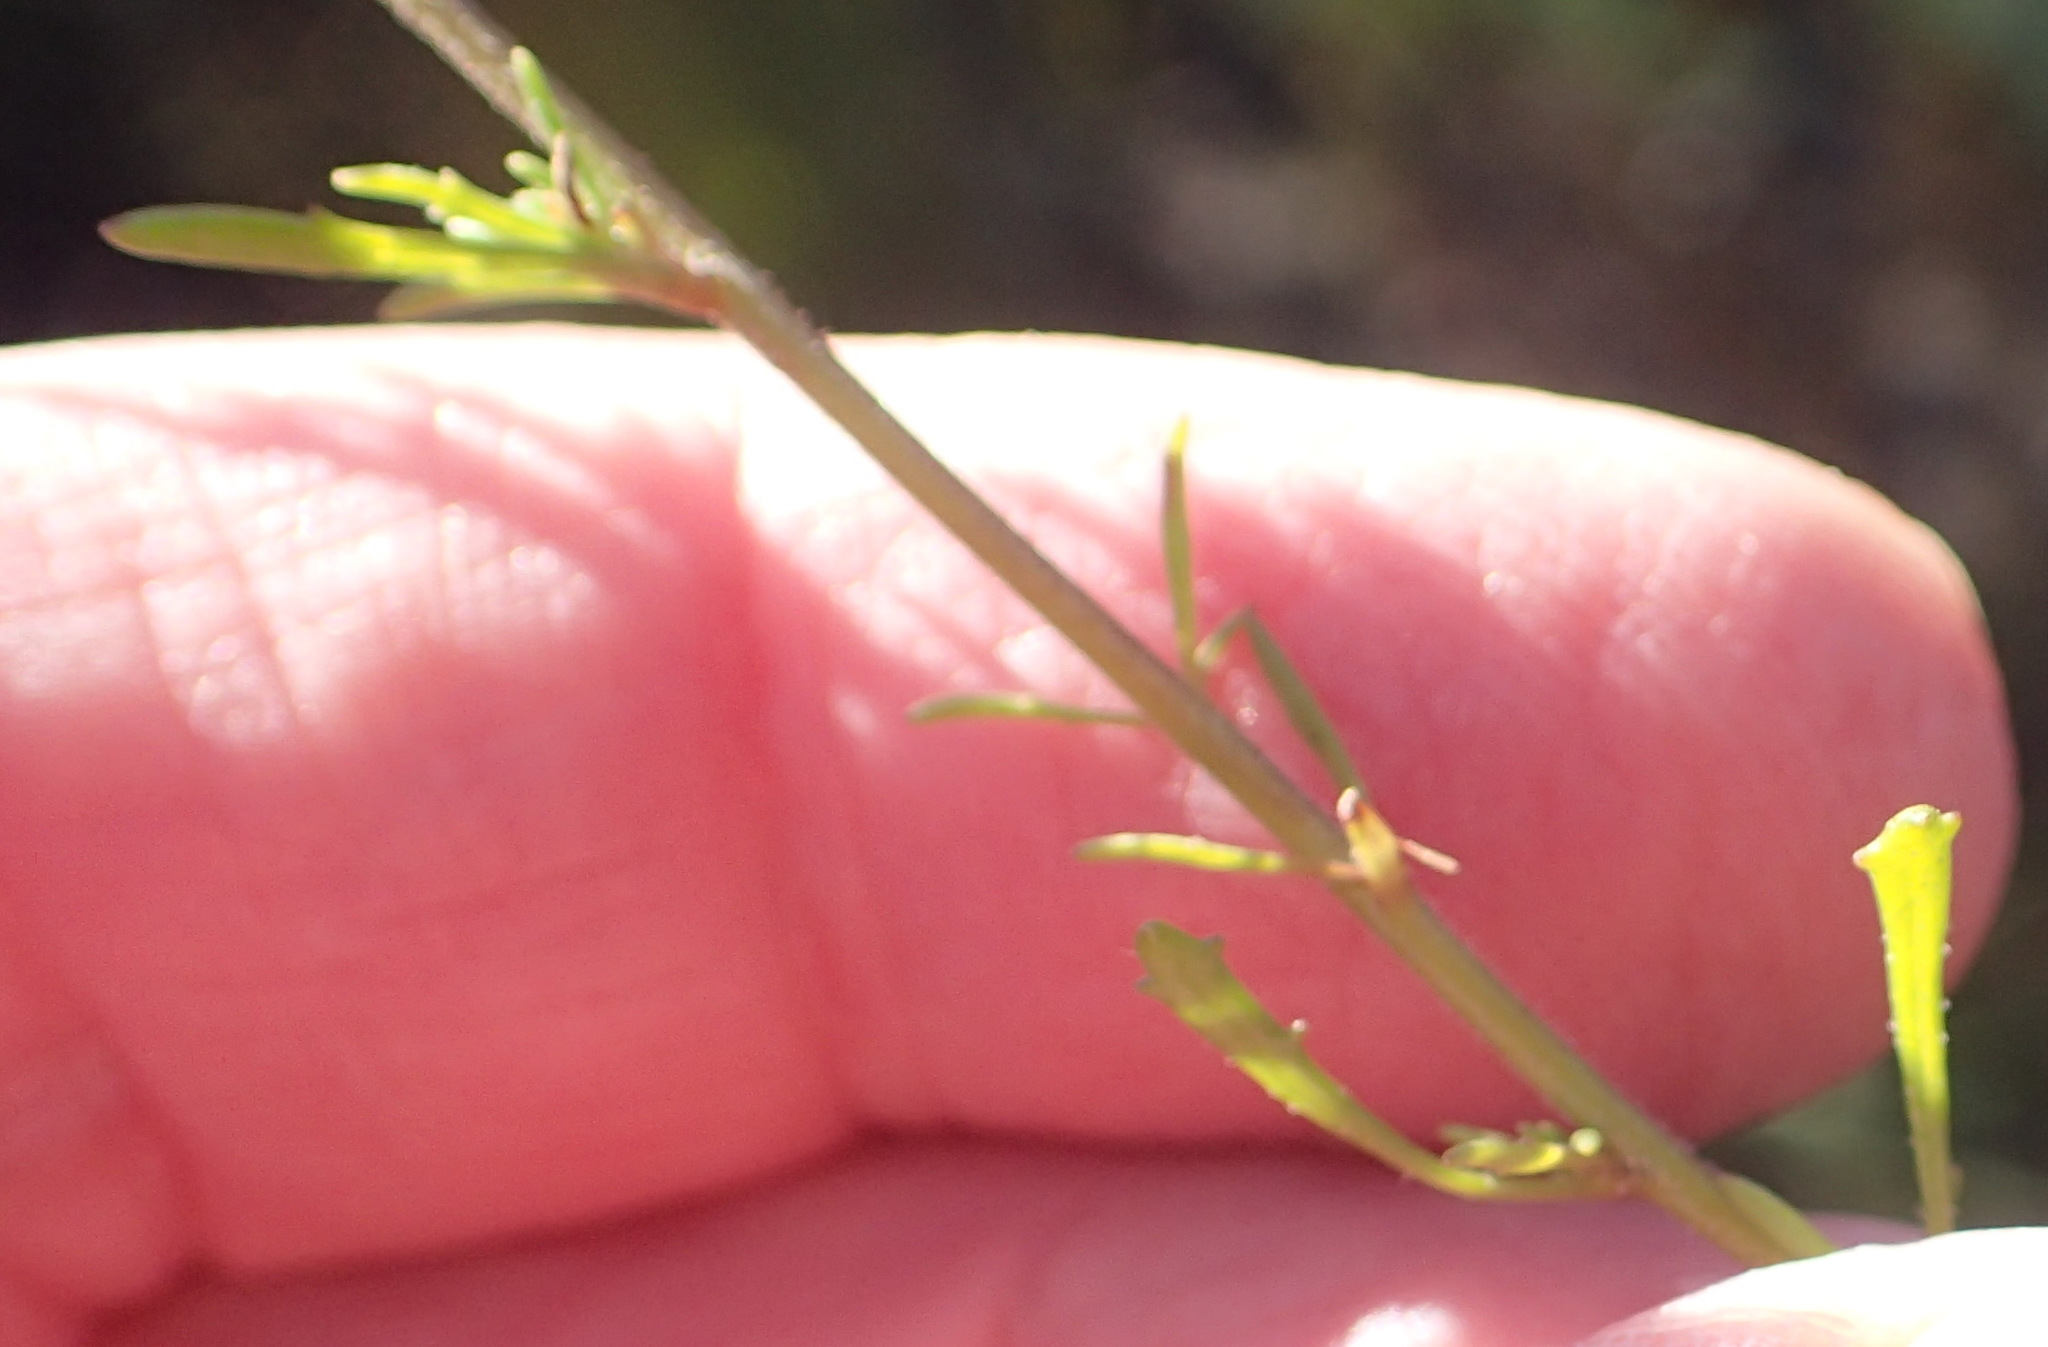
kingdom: Plantae
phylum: Tracheophyta
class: Magnoliopsida
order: Lamiales
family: Scrophulariaceae
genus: Pseudoselago
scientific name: Pseudoselago bella
